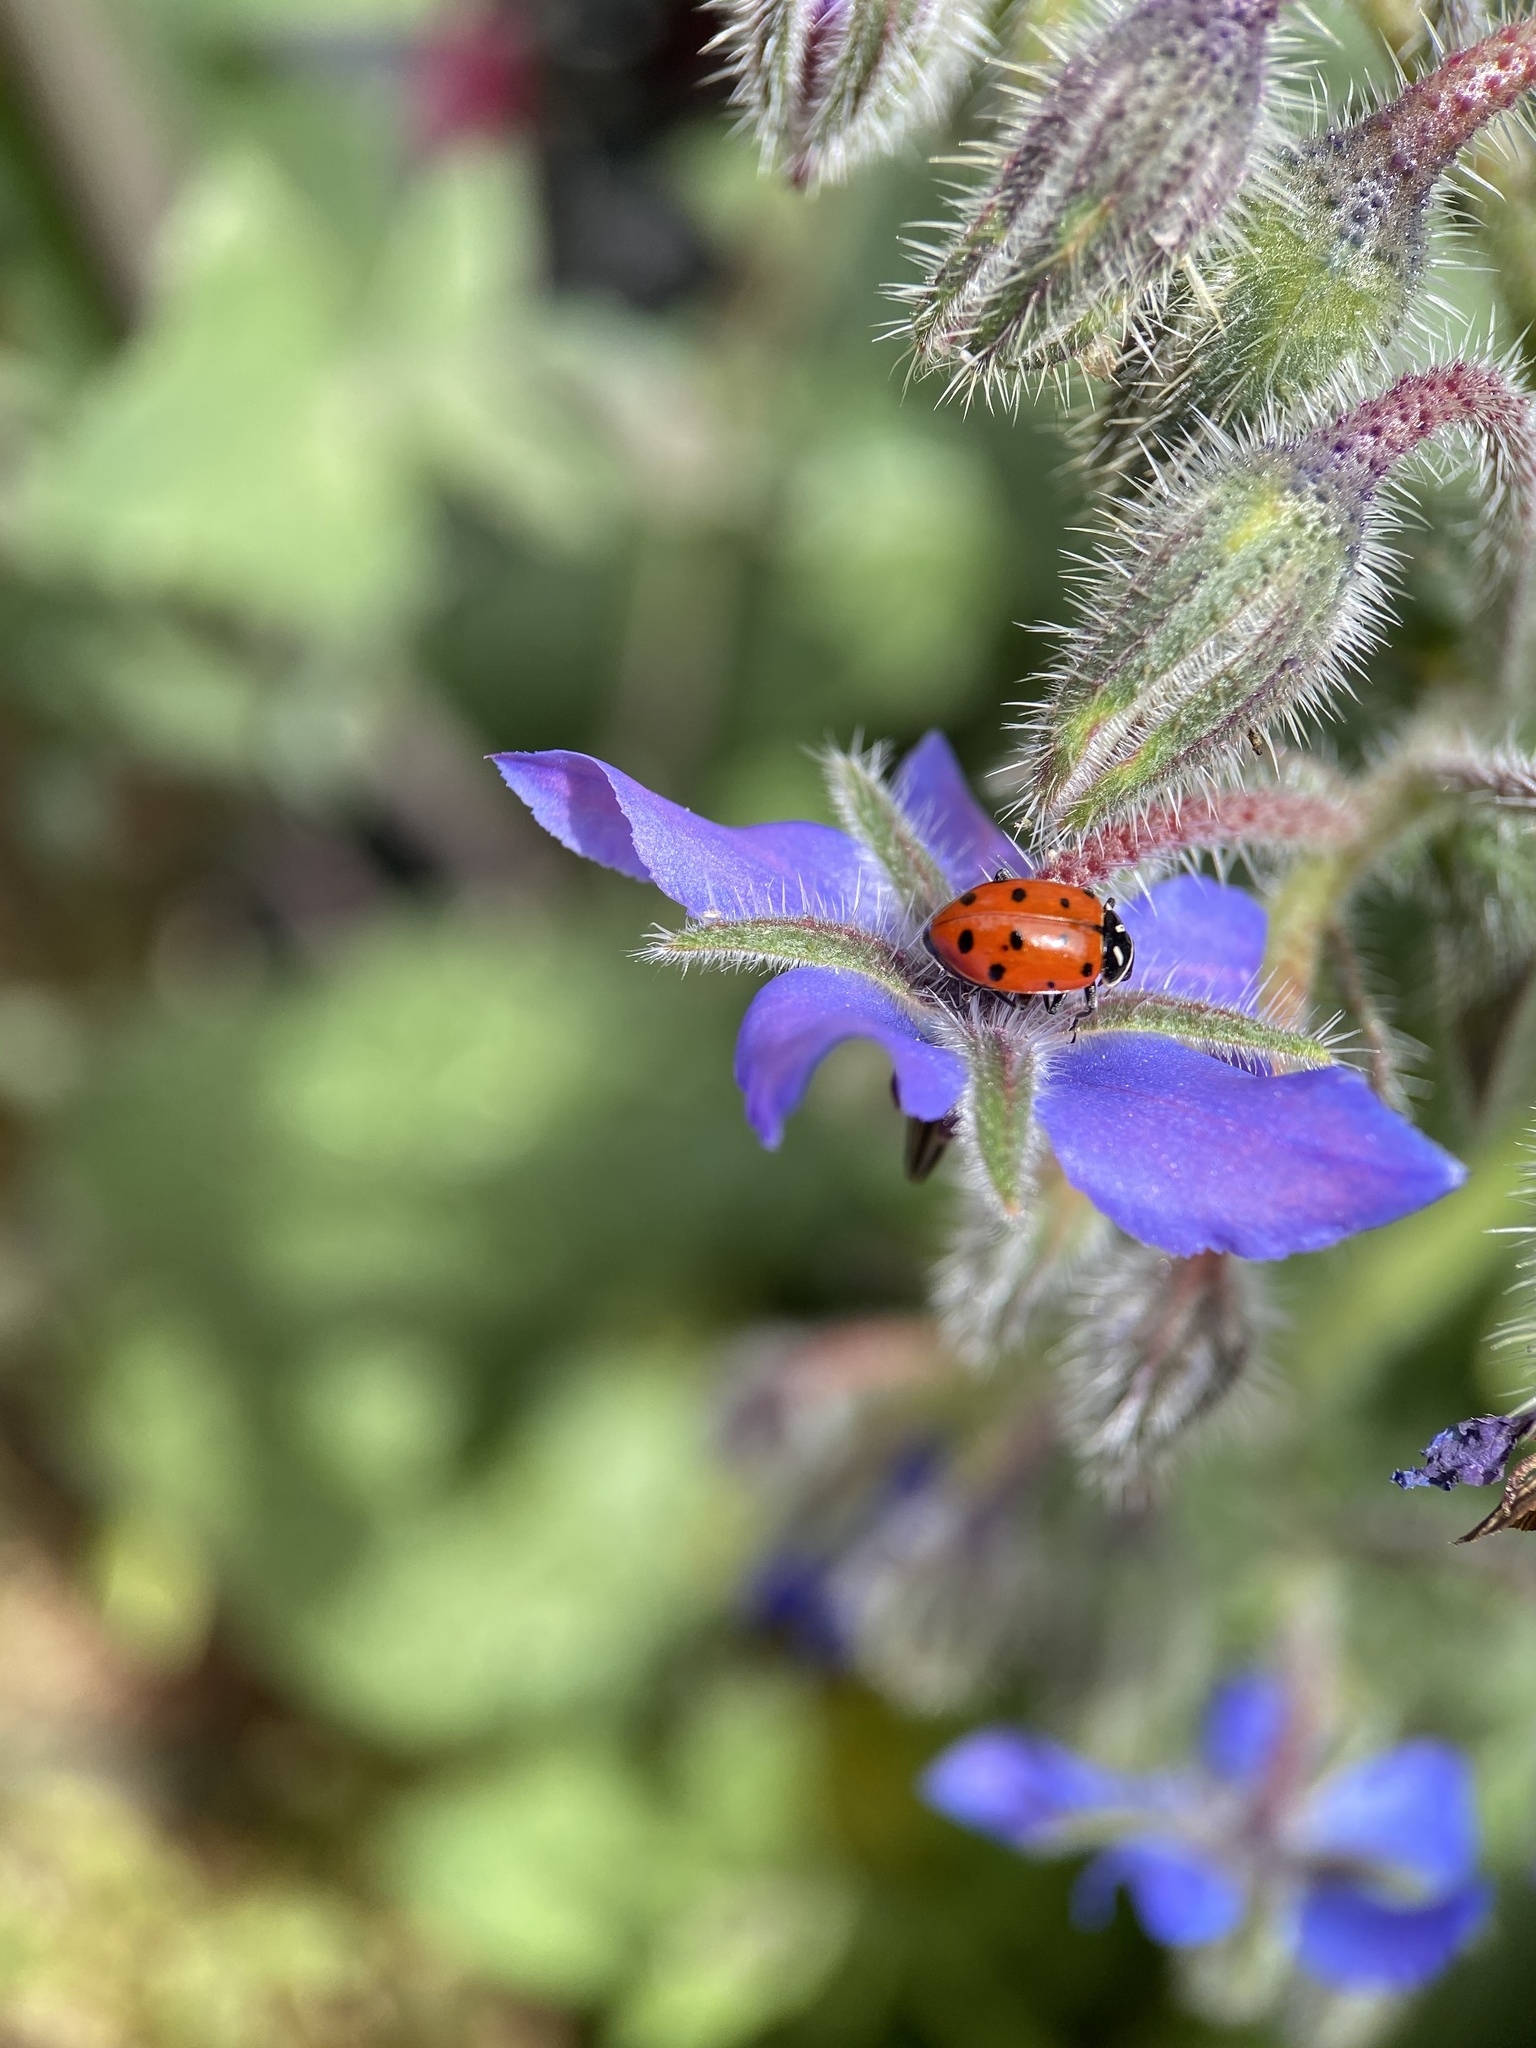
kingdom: Animalia
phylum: Arthropoda
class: Insecta
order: Coleoptera
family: Coccinellidae
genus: Hippodamia
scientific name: Hippodamia convergens
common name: Convergent lady beetle
